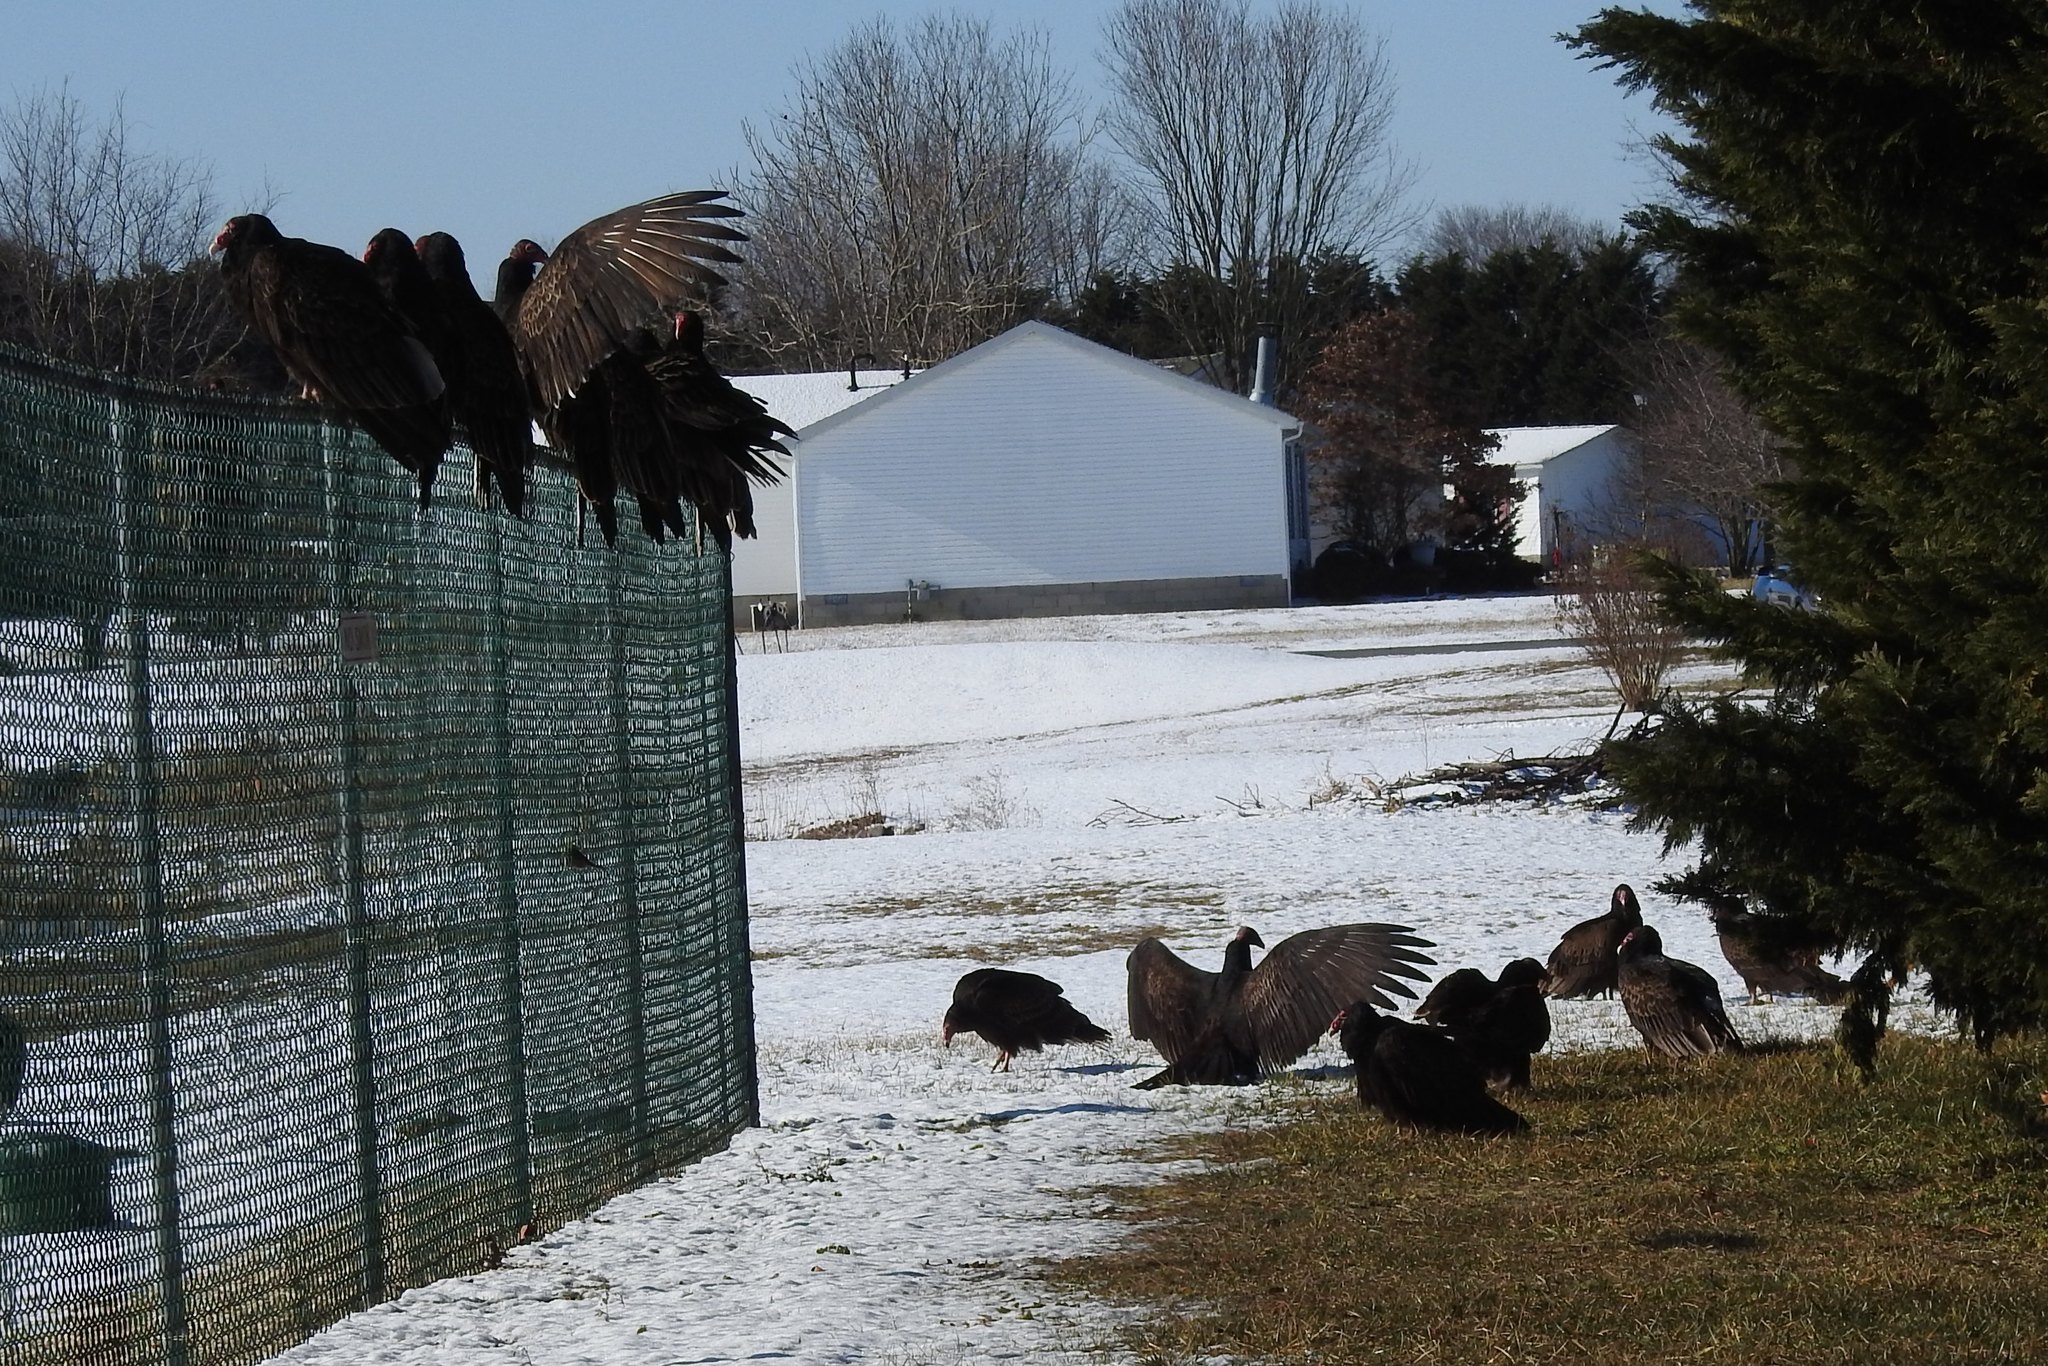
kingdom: Animalia
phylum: Chordata
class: Aves
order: Accipitriformes
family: Cathartidae
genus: Cathartes
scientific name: Cathartes aura
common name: Turkey vulture
